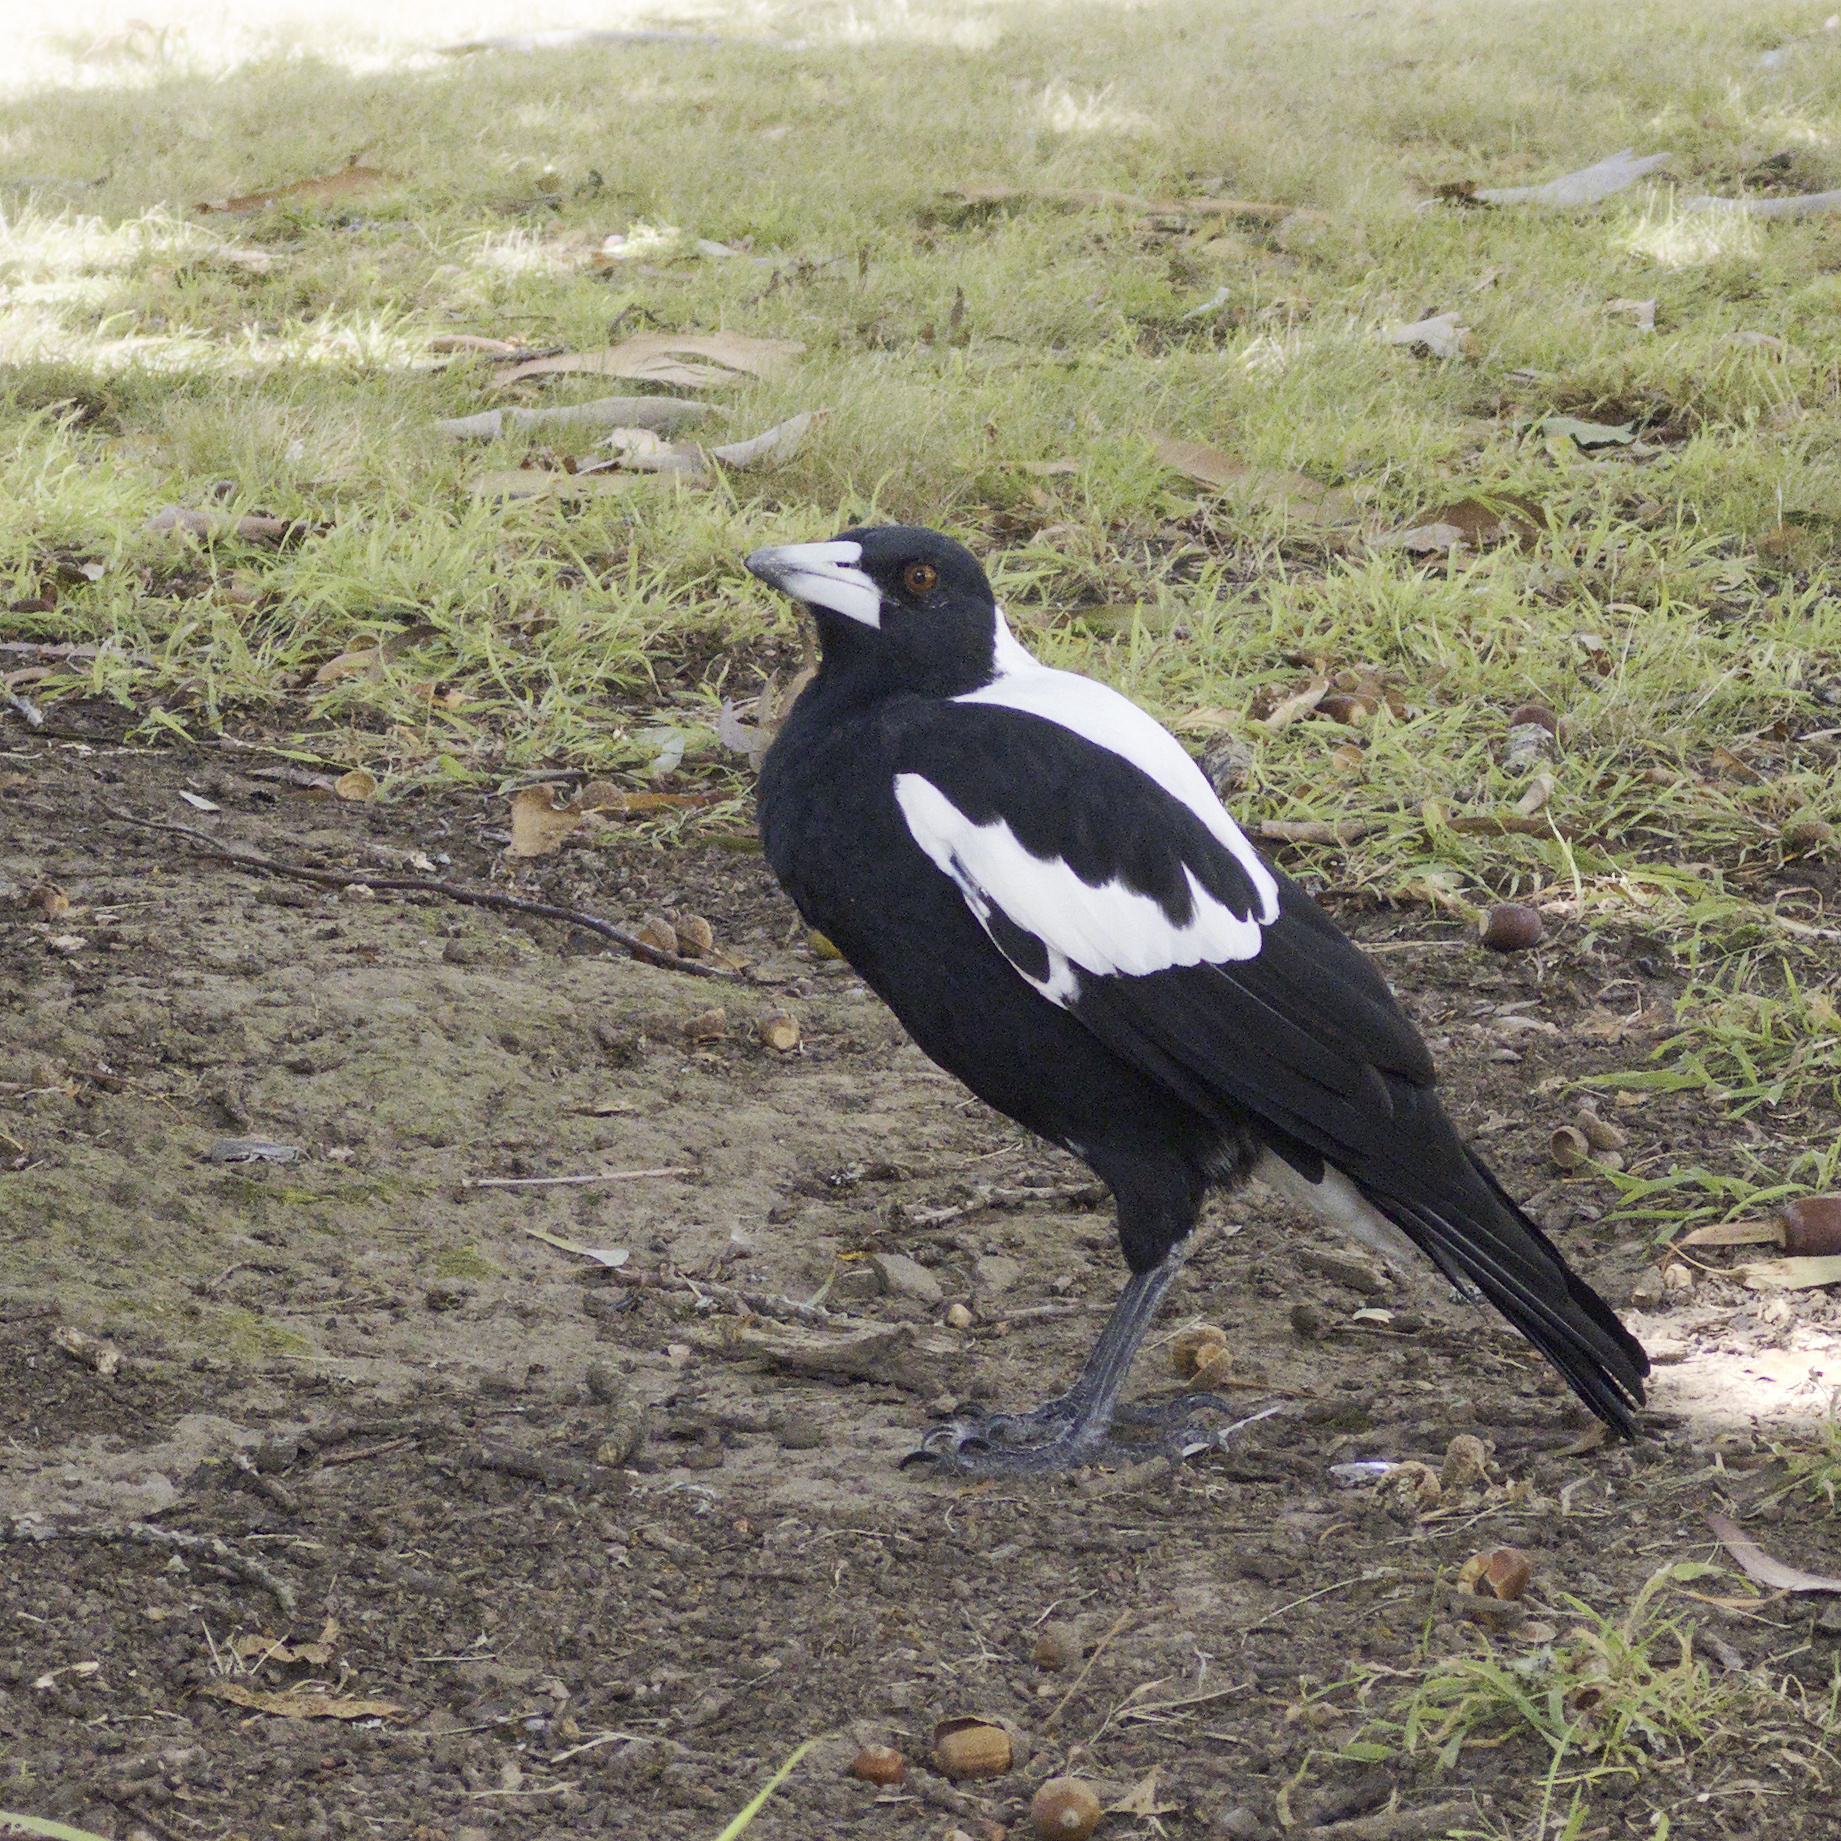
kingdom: Animalia
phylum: Chordata
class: Aves
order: Passeriformes
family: Cracticidae
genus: Gymnorhina
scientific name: Gymnorhina tibicen
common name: Australian magpie
